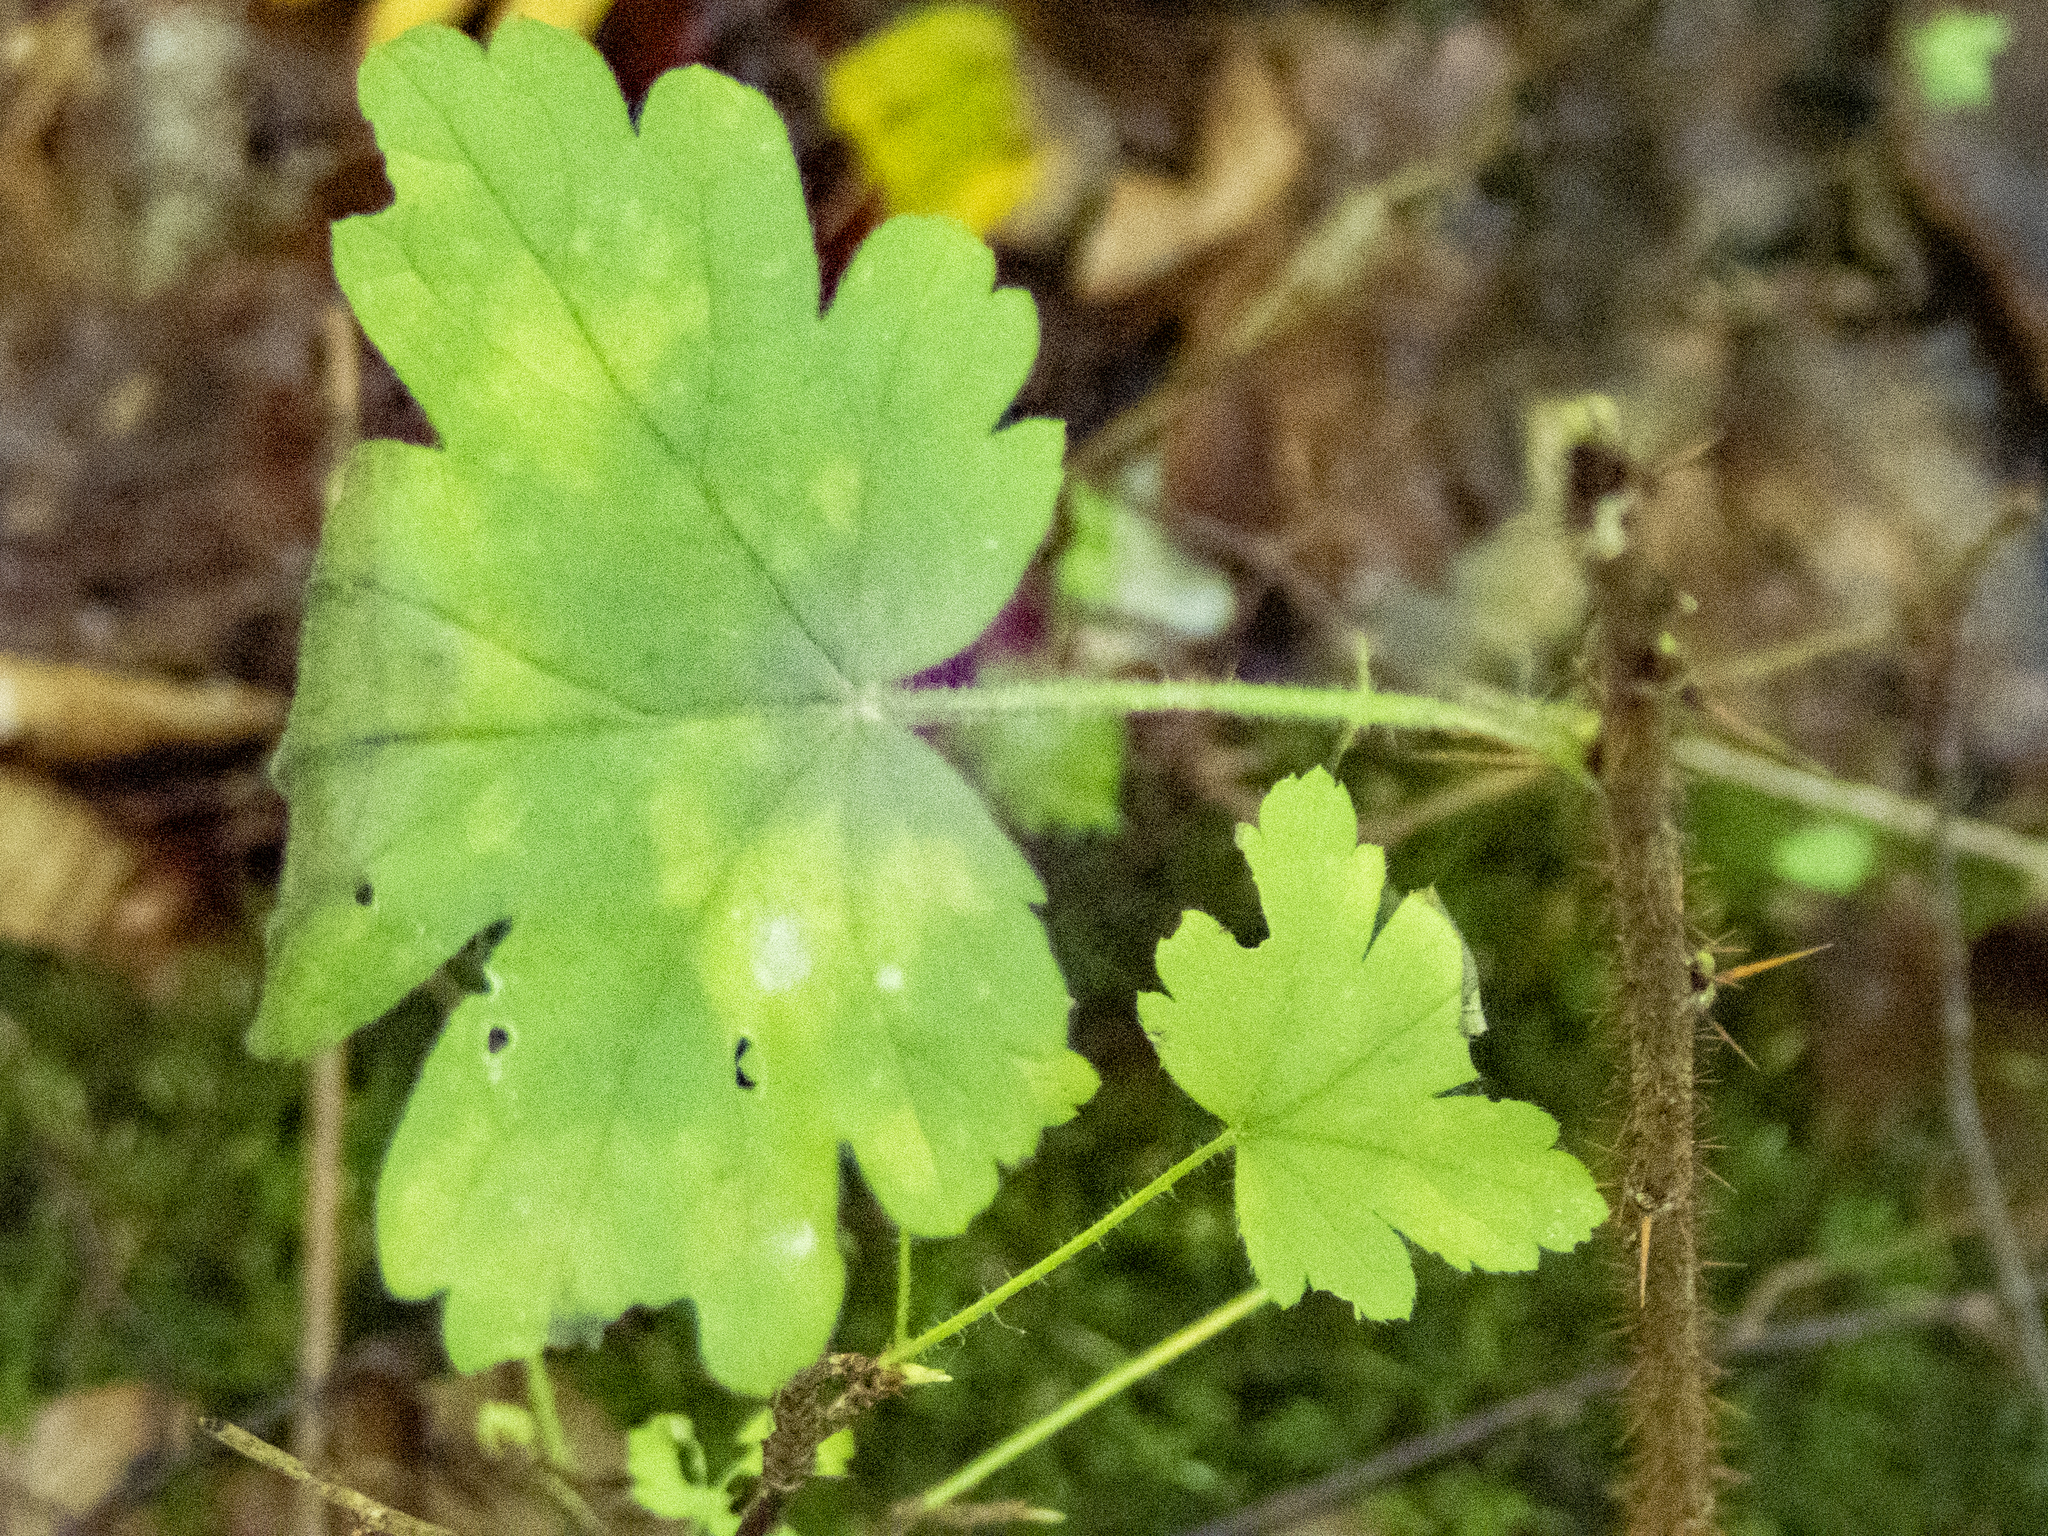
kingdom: Plantae
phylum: Tracheophyta
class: Magnoliopsida
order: Saxifragales
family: Grossulariaceae
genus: Ribes
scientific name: Ribes cynosbati
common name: American gooseberry
